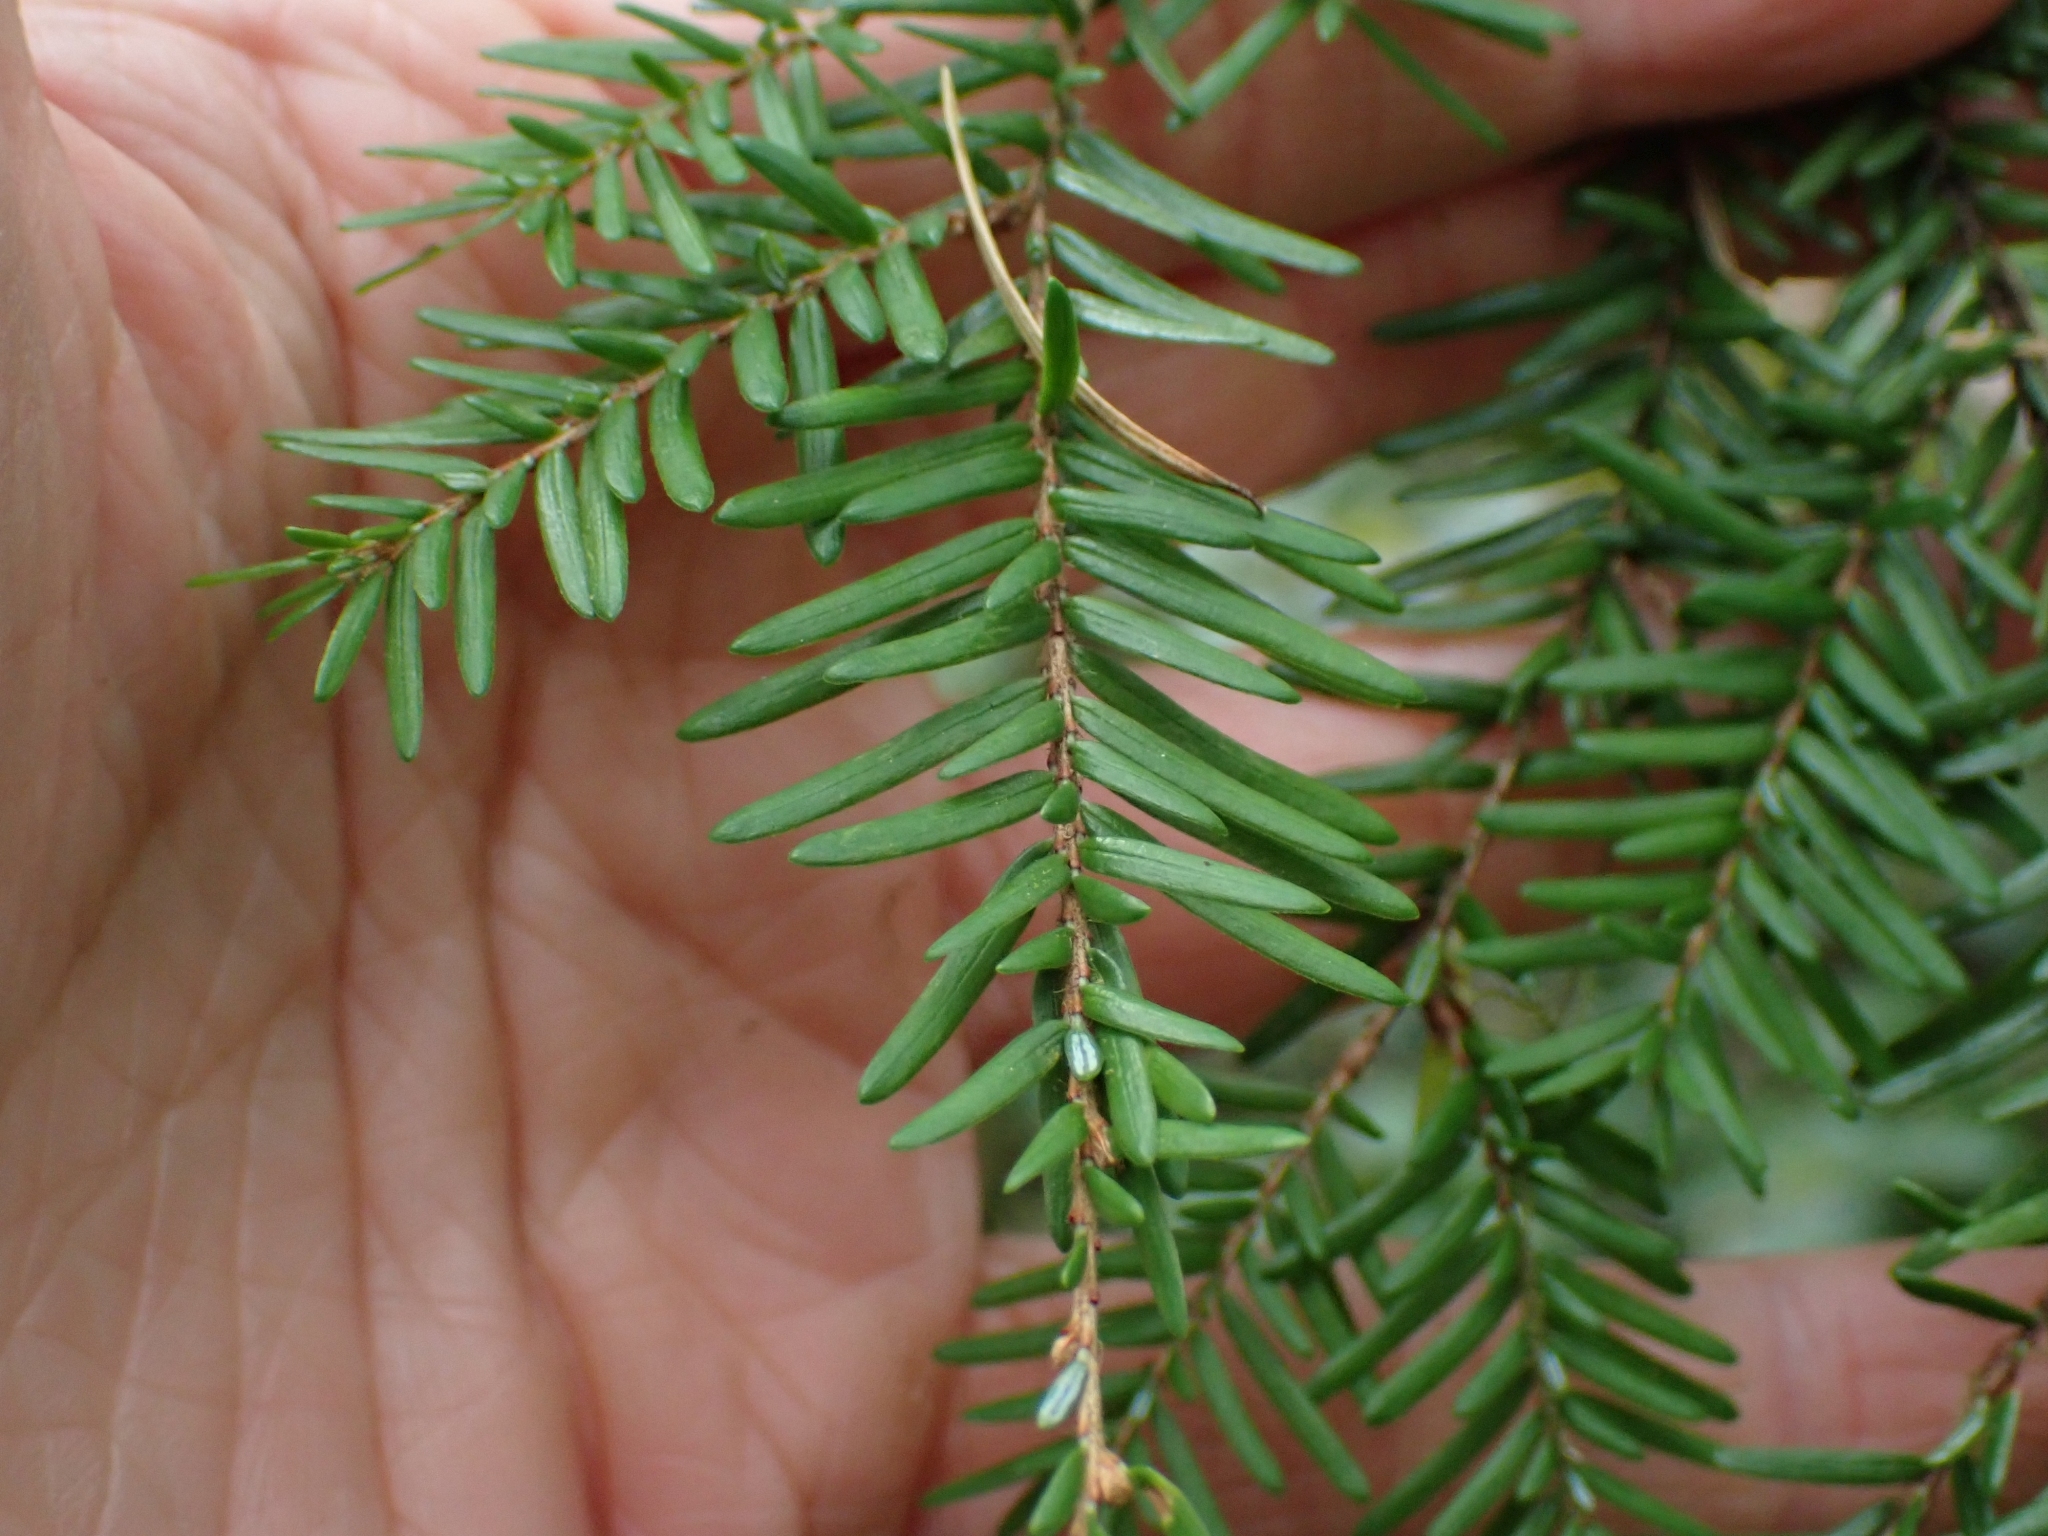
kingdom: Plantae
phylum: Tracheophyta
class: Pinopsida
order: Pinales
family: Pinaceae
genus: Tsuga
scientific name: Tsuga heterophylla
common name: Western hemlock
